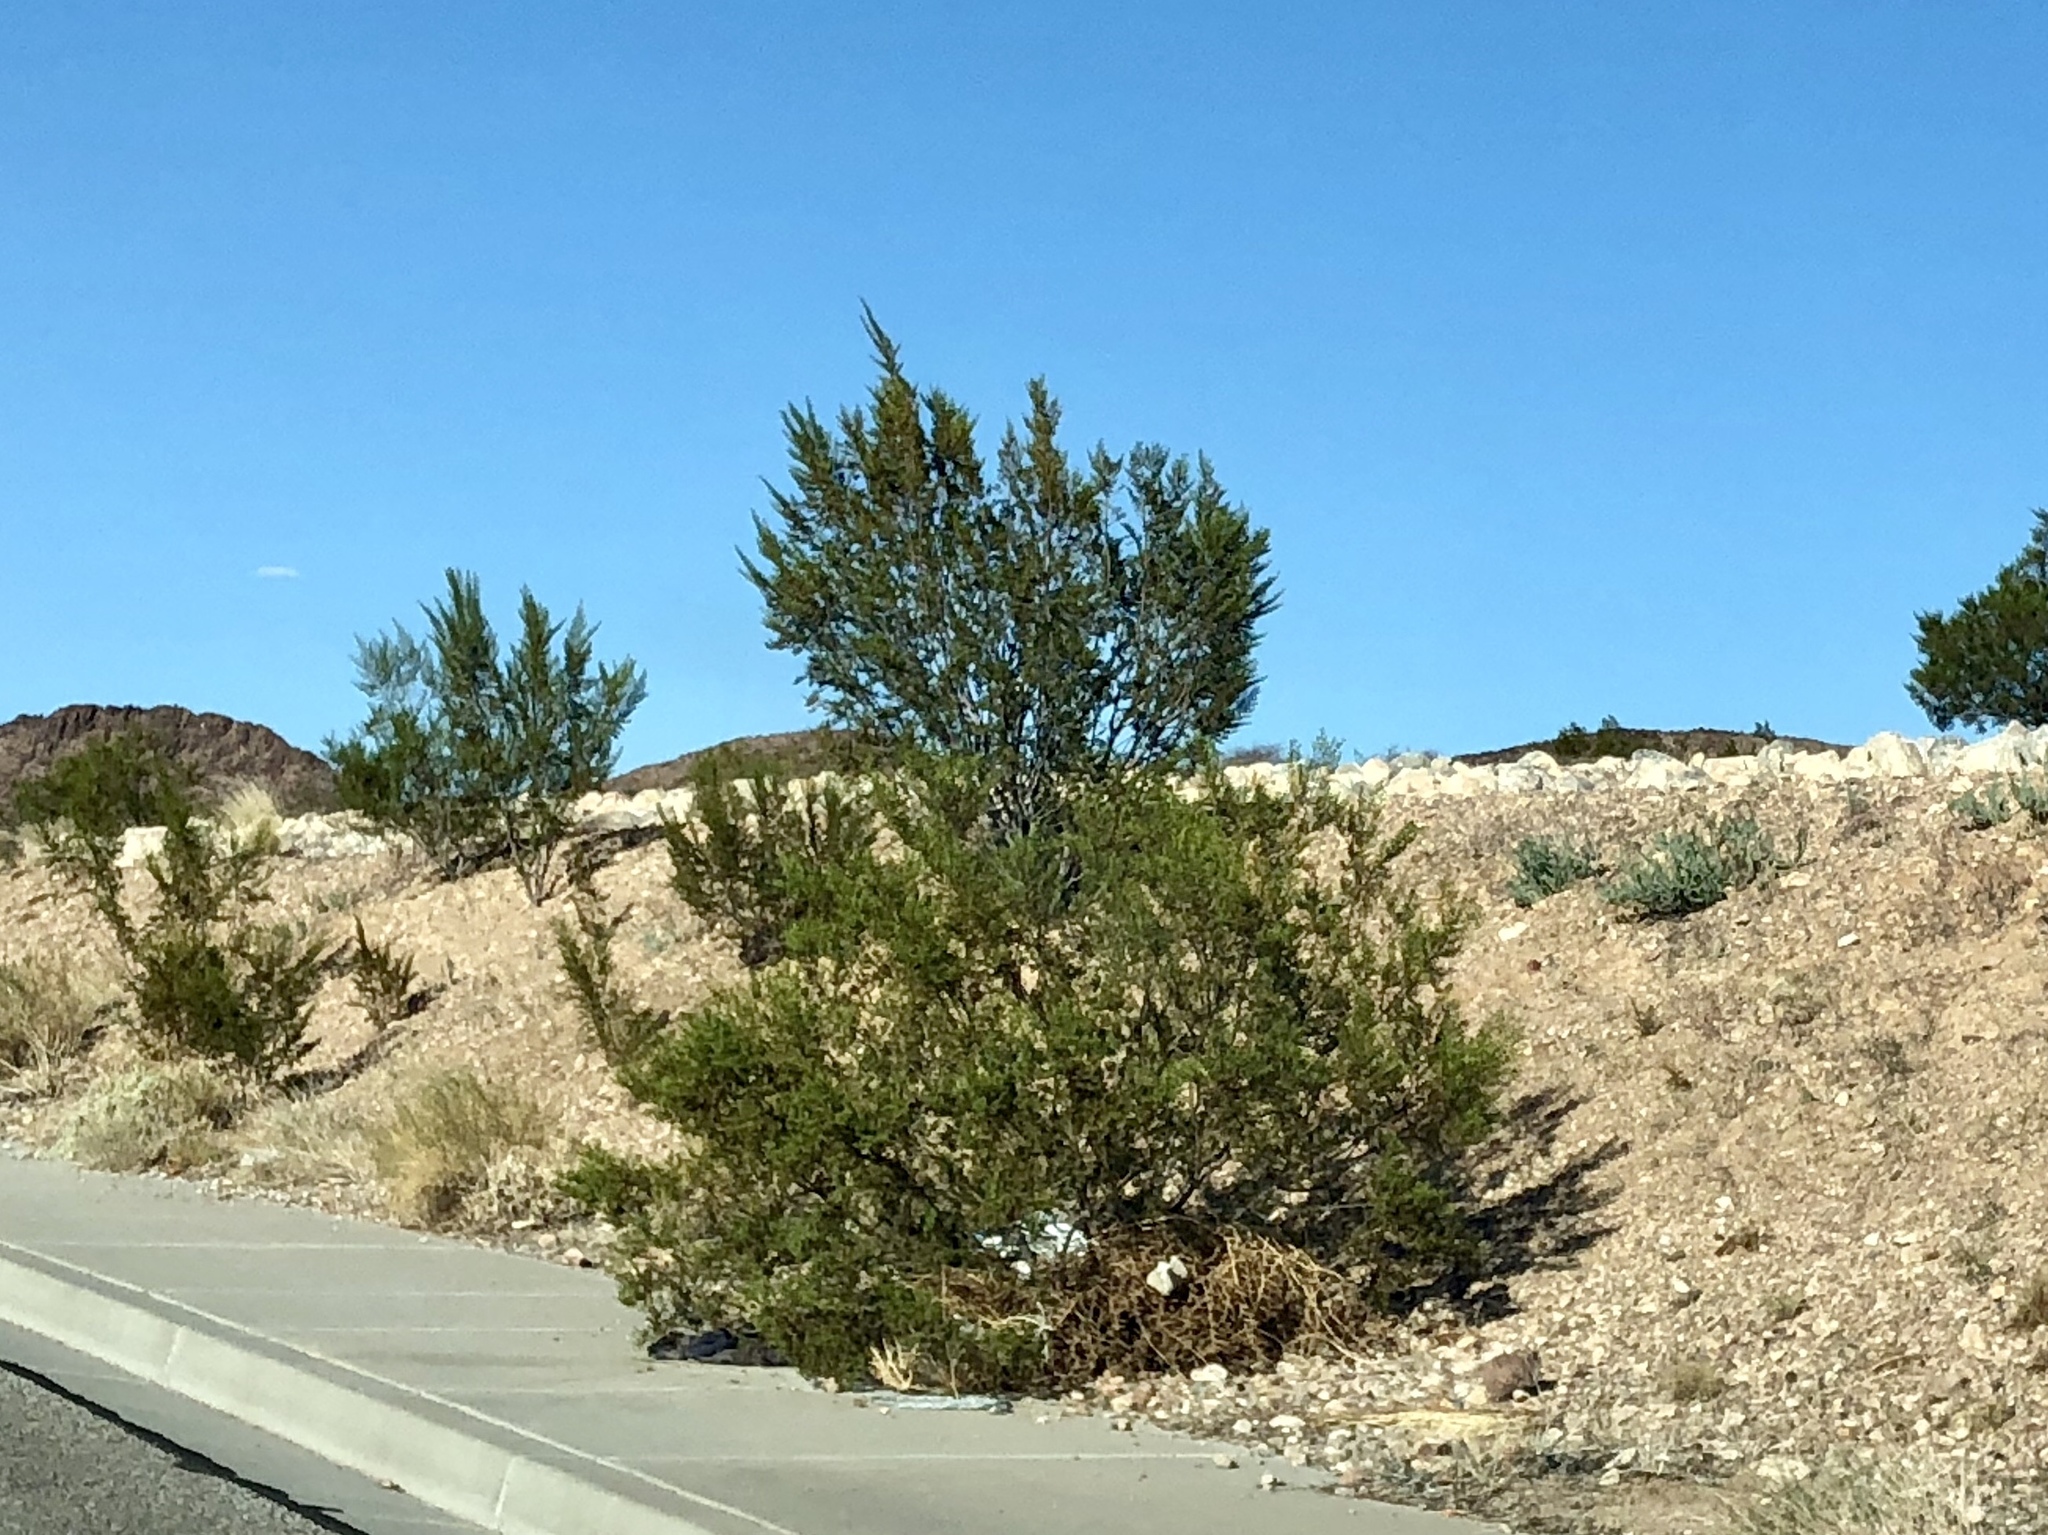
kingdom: Plantae
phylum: Tracheophyta
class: Magnoliopsida
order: Zygophyllales
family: Zygophyllaceae
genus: Larrea
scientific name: Larrea tridentata
